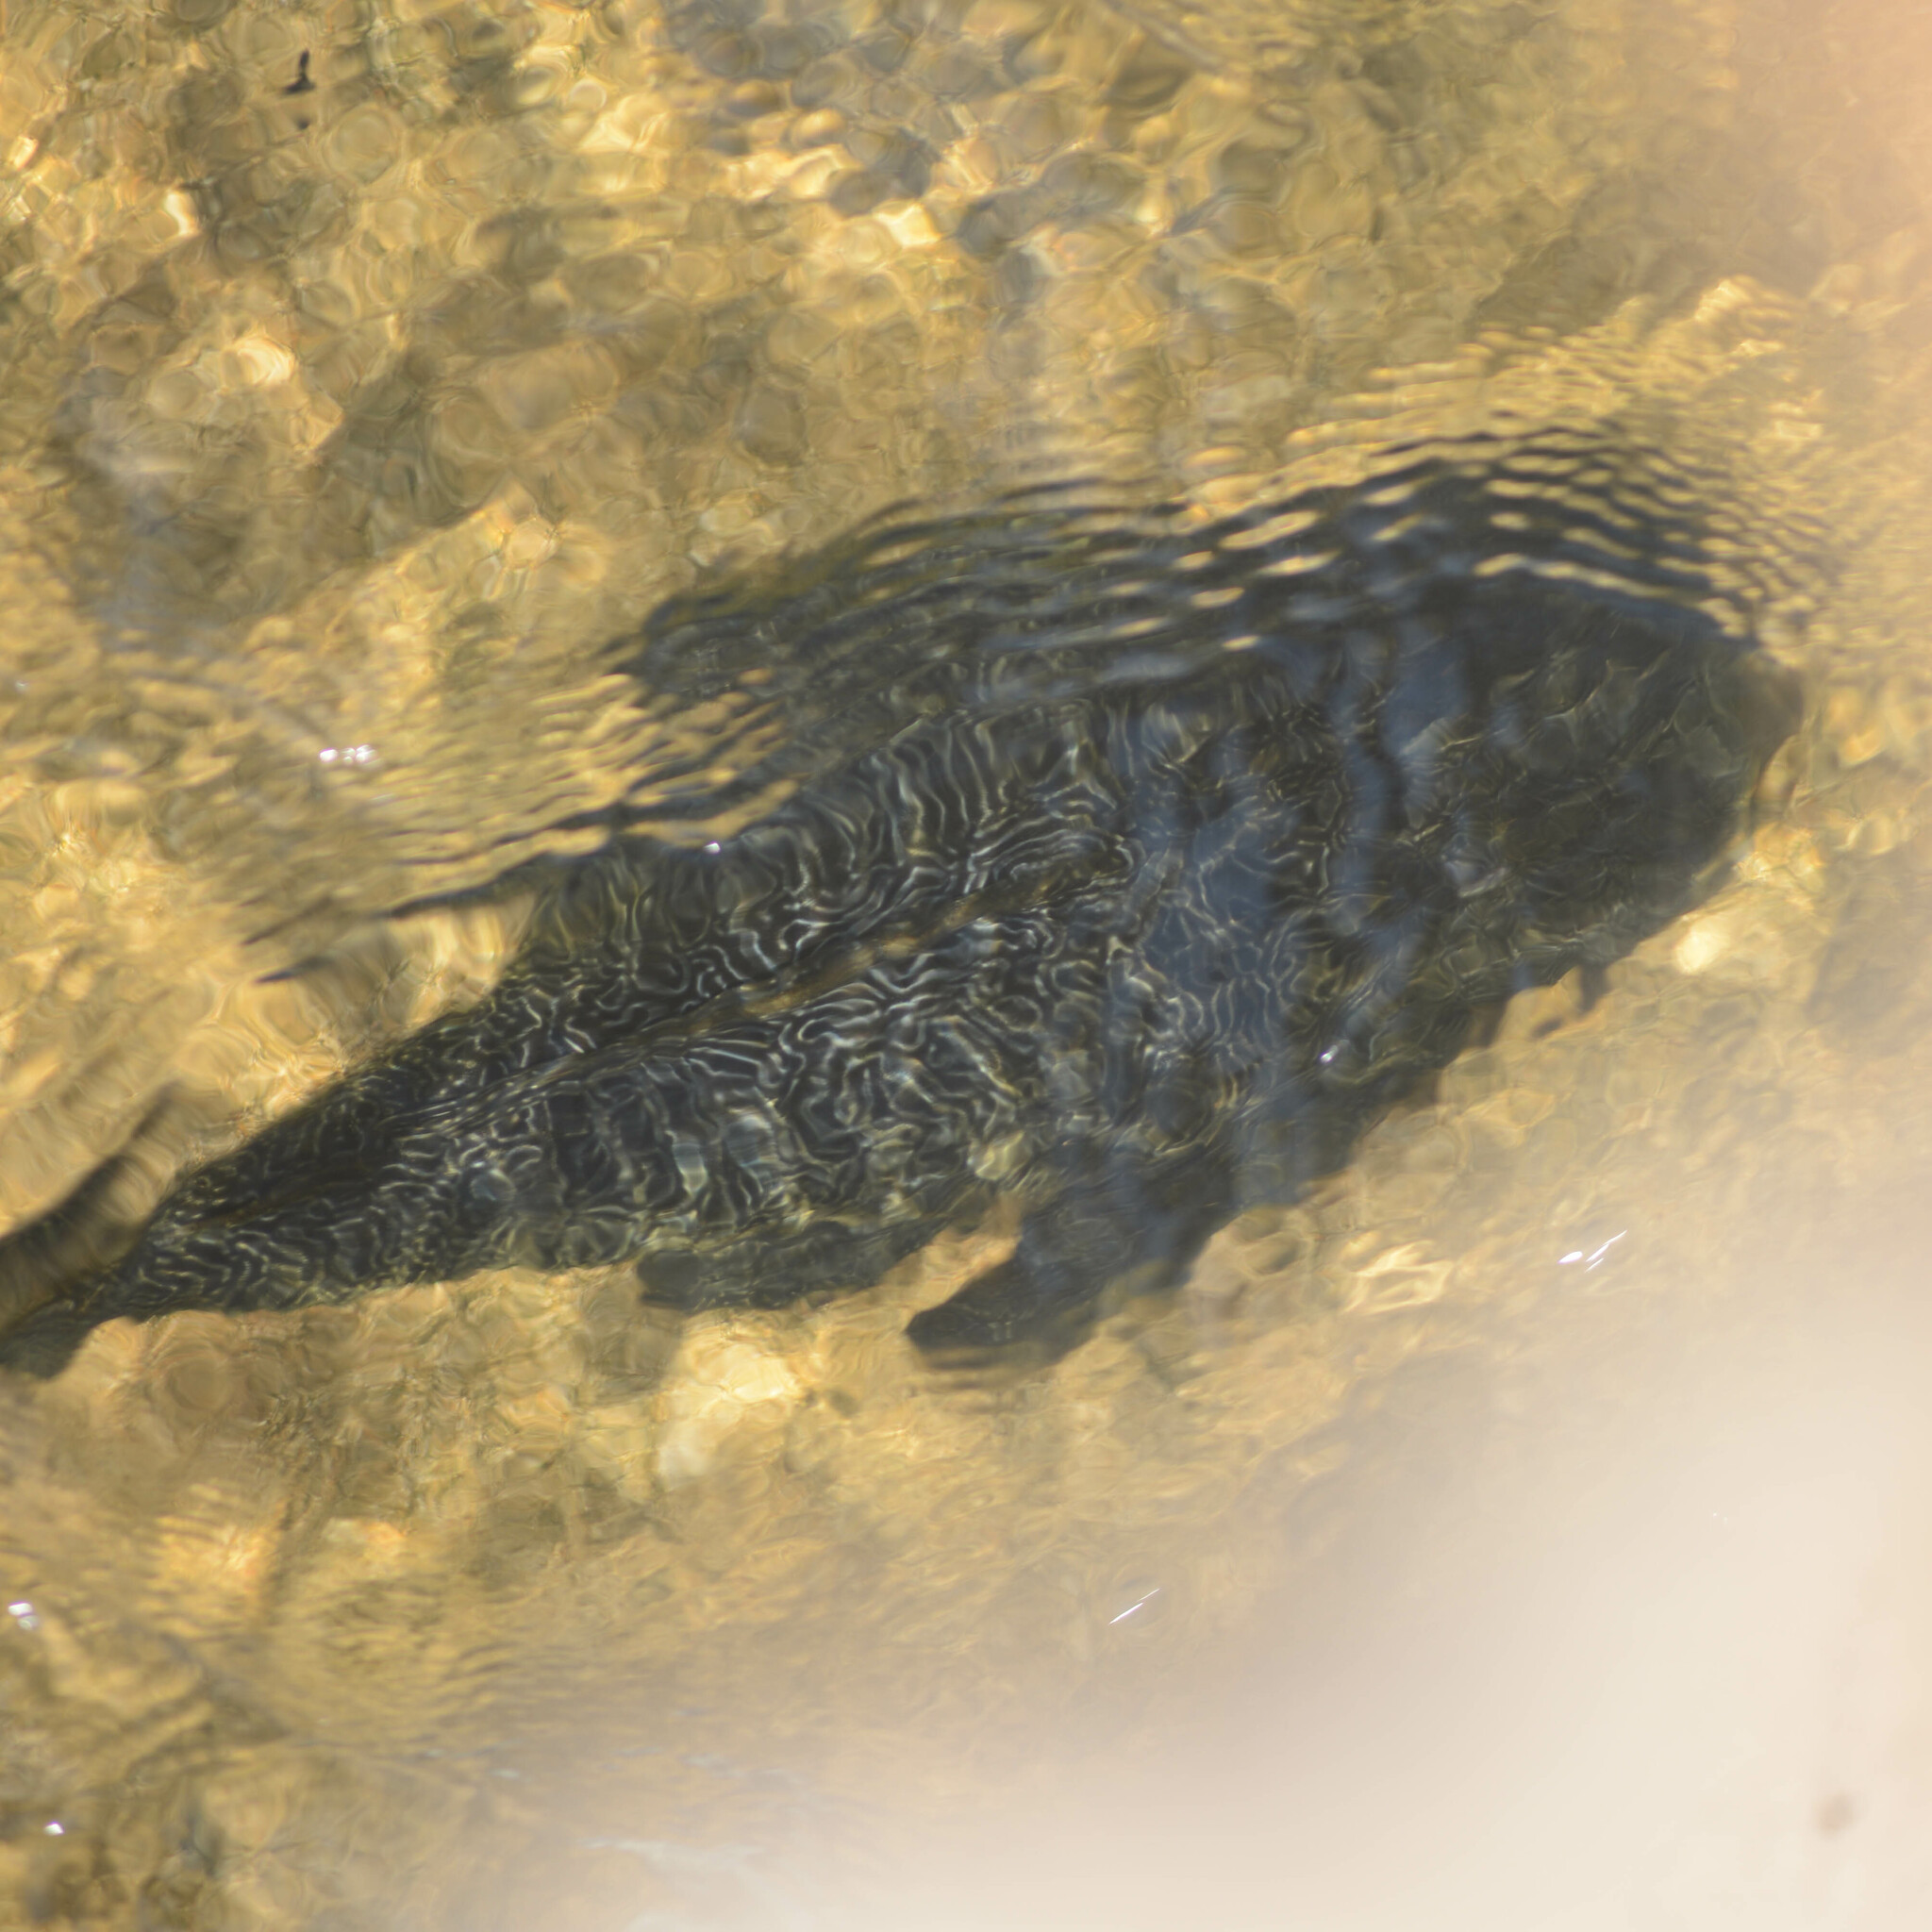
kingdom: Animalia
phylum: Chordata
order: Siluriformes
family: Loricariidae
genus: Hypostomus
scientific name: Hypostomus myersi
